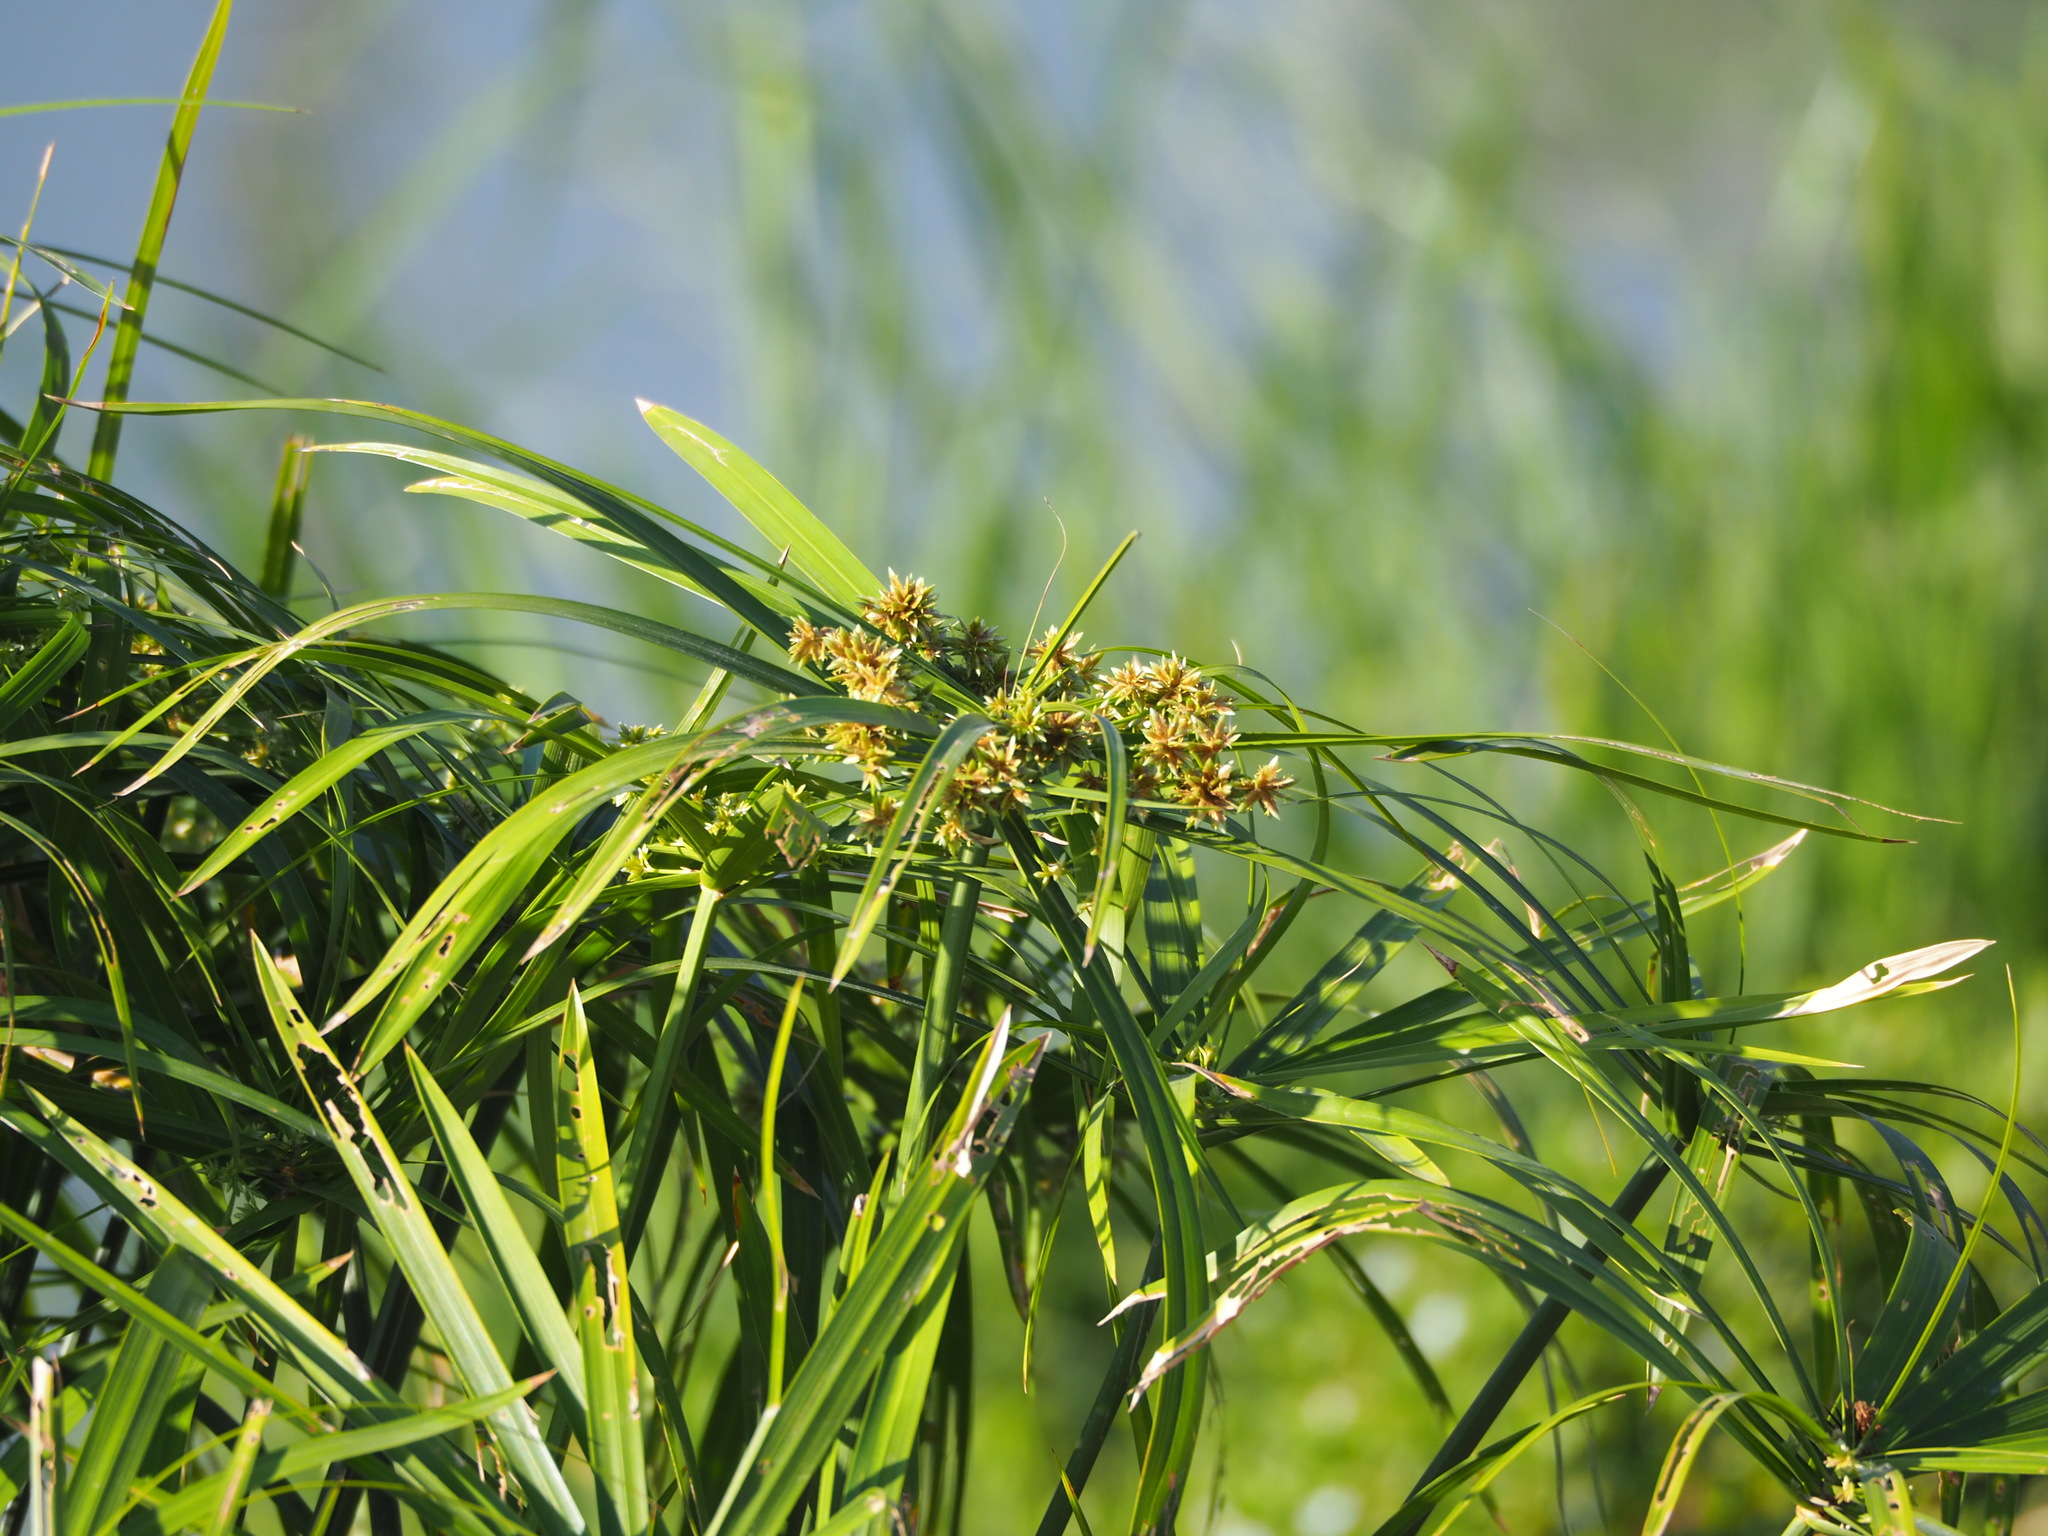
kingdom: Plantae
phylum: Tracheophyta
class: Liliopsida
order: Poales
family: Cyperaceae
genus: Cyperus
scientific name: Cyperus alternifolius
